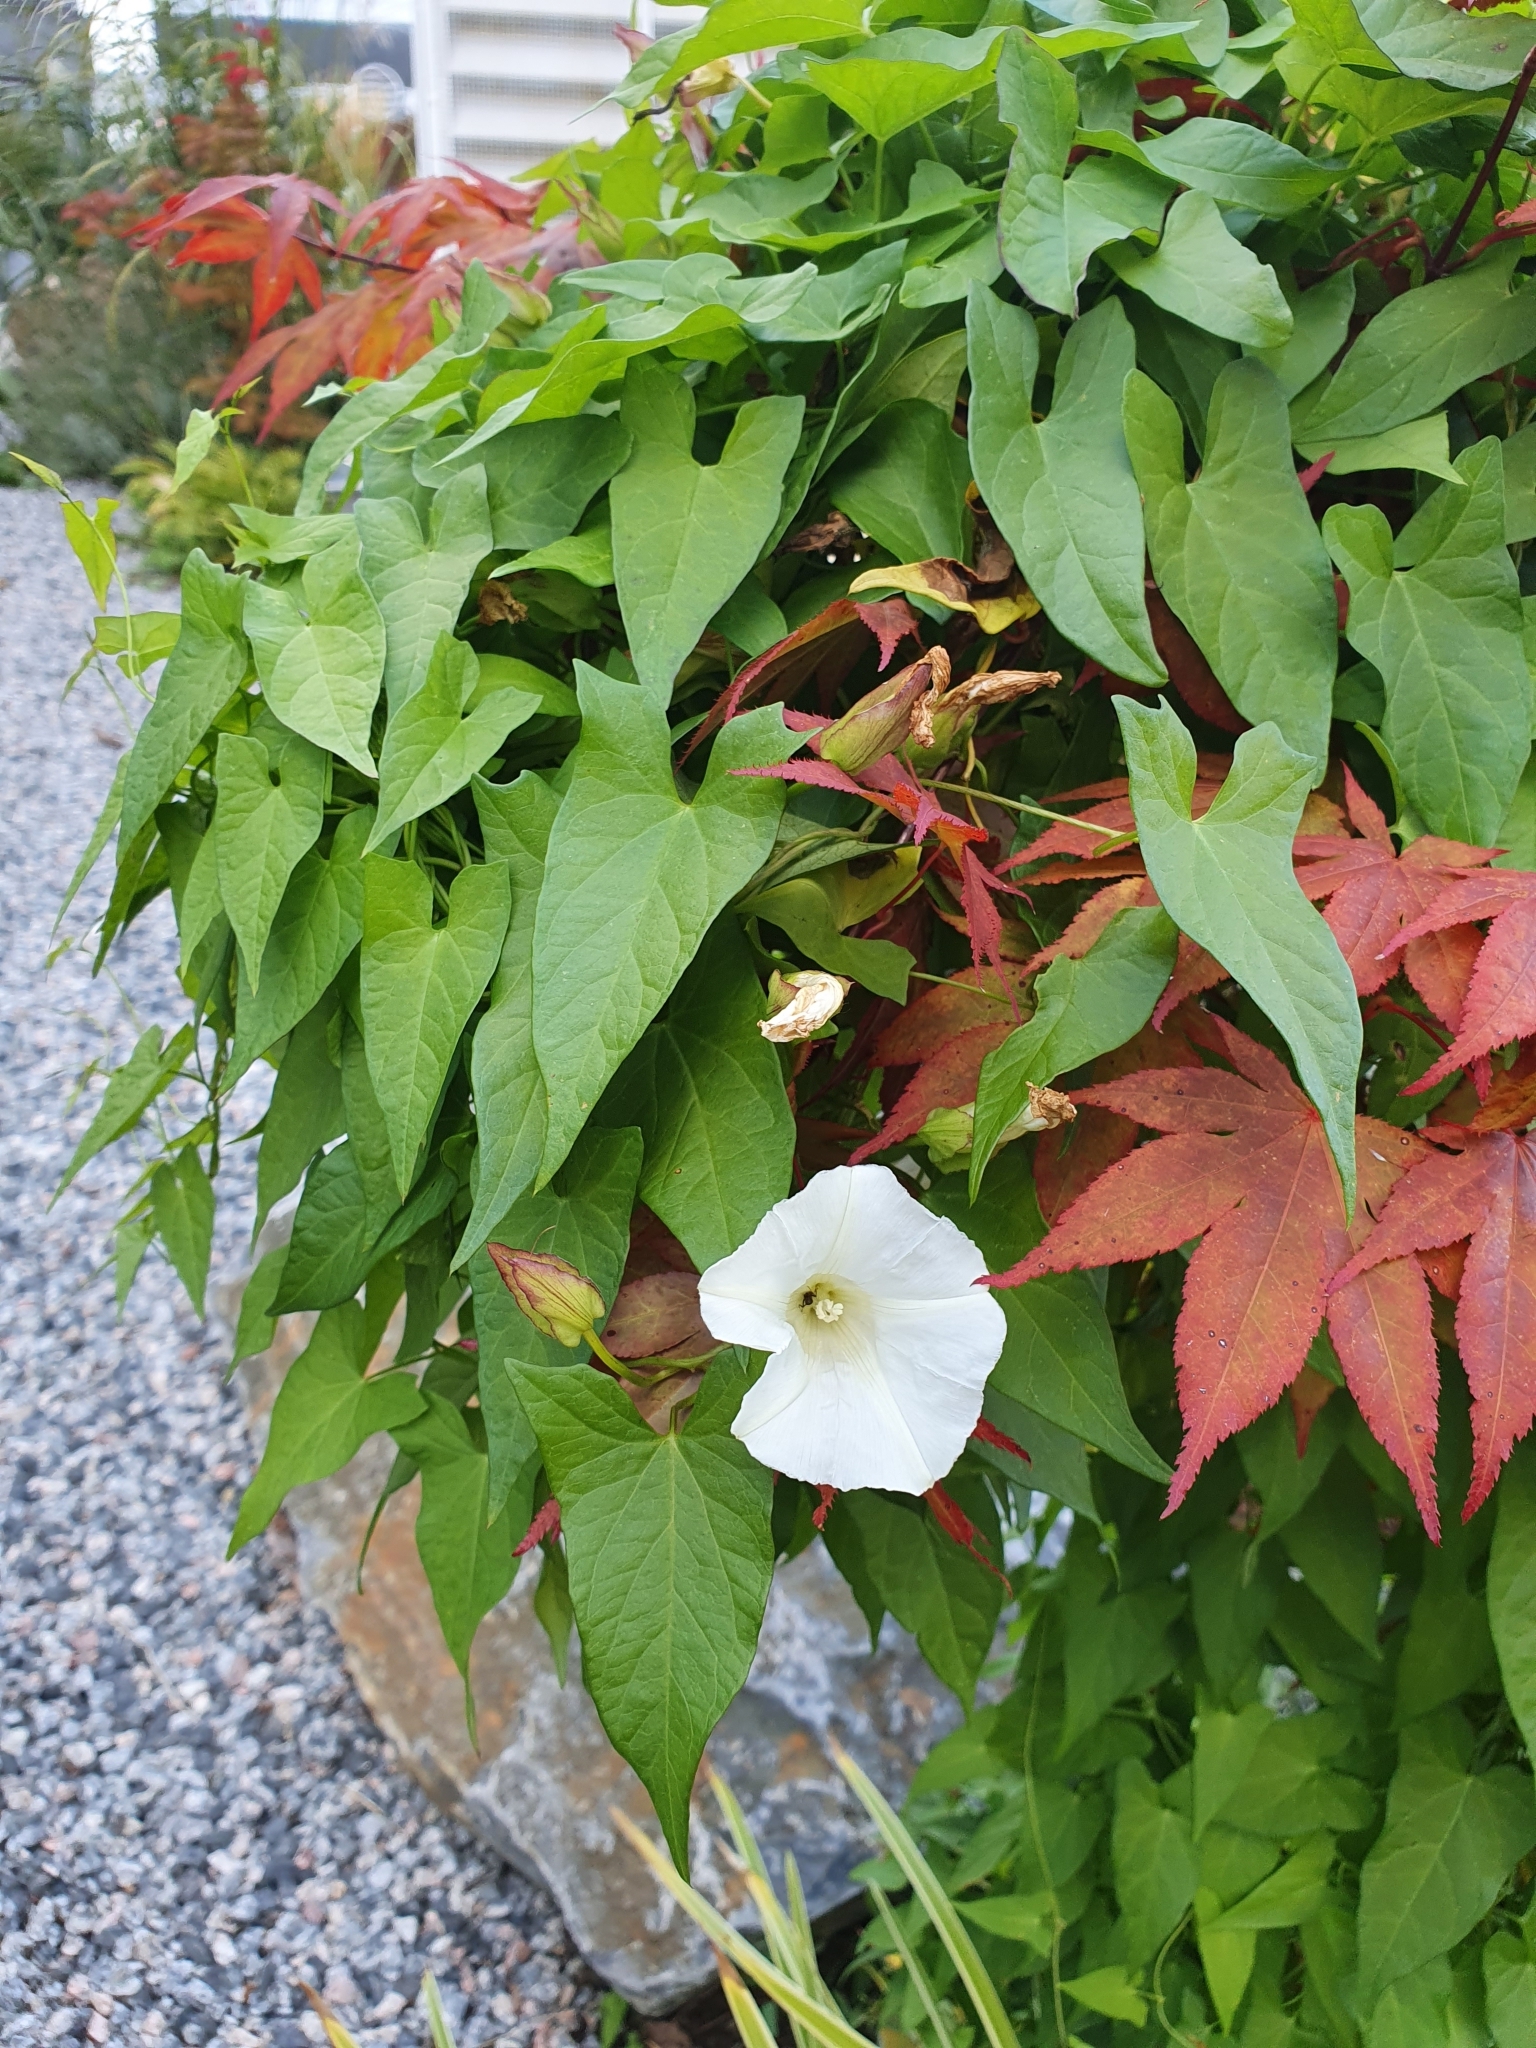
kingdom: Plantae
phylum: Tracheophyta
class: Magnoliopsida
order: Solanales
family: Convolvulaceae
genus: Calystegia
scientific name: Calystegia sepium
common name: Hedge bindweed
